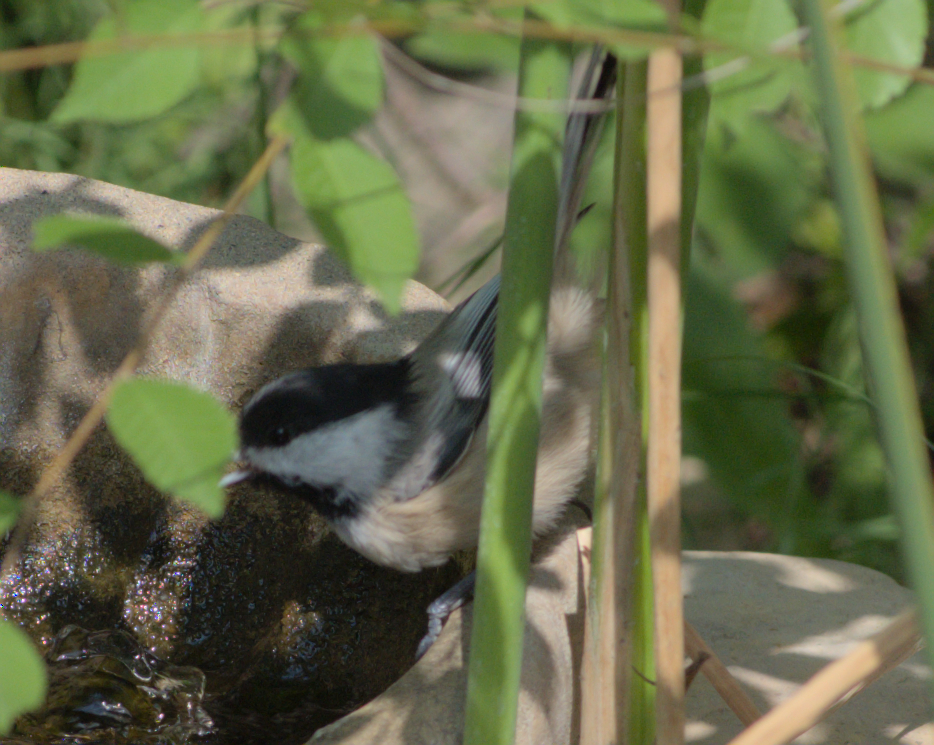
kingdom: Animalia
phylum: Chordata
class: Aves
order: Passeriformes
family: Paridae
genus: Poecile
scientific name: Poecile atricapillus
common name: Black-capped chickadee
